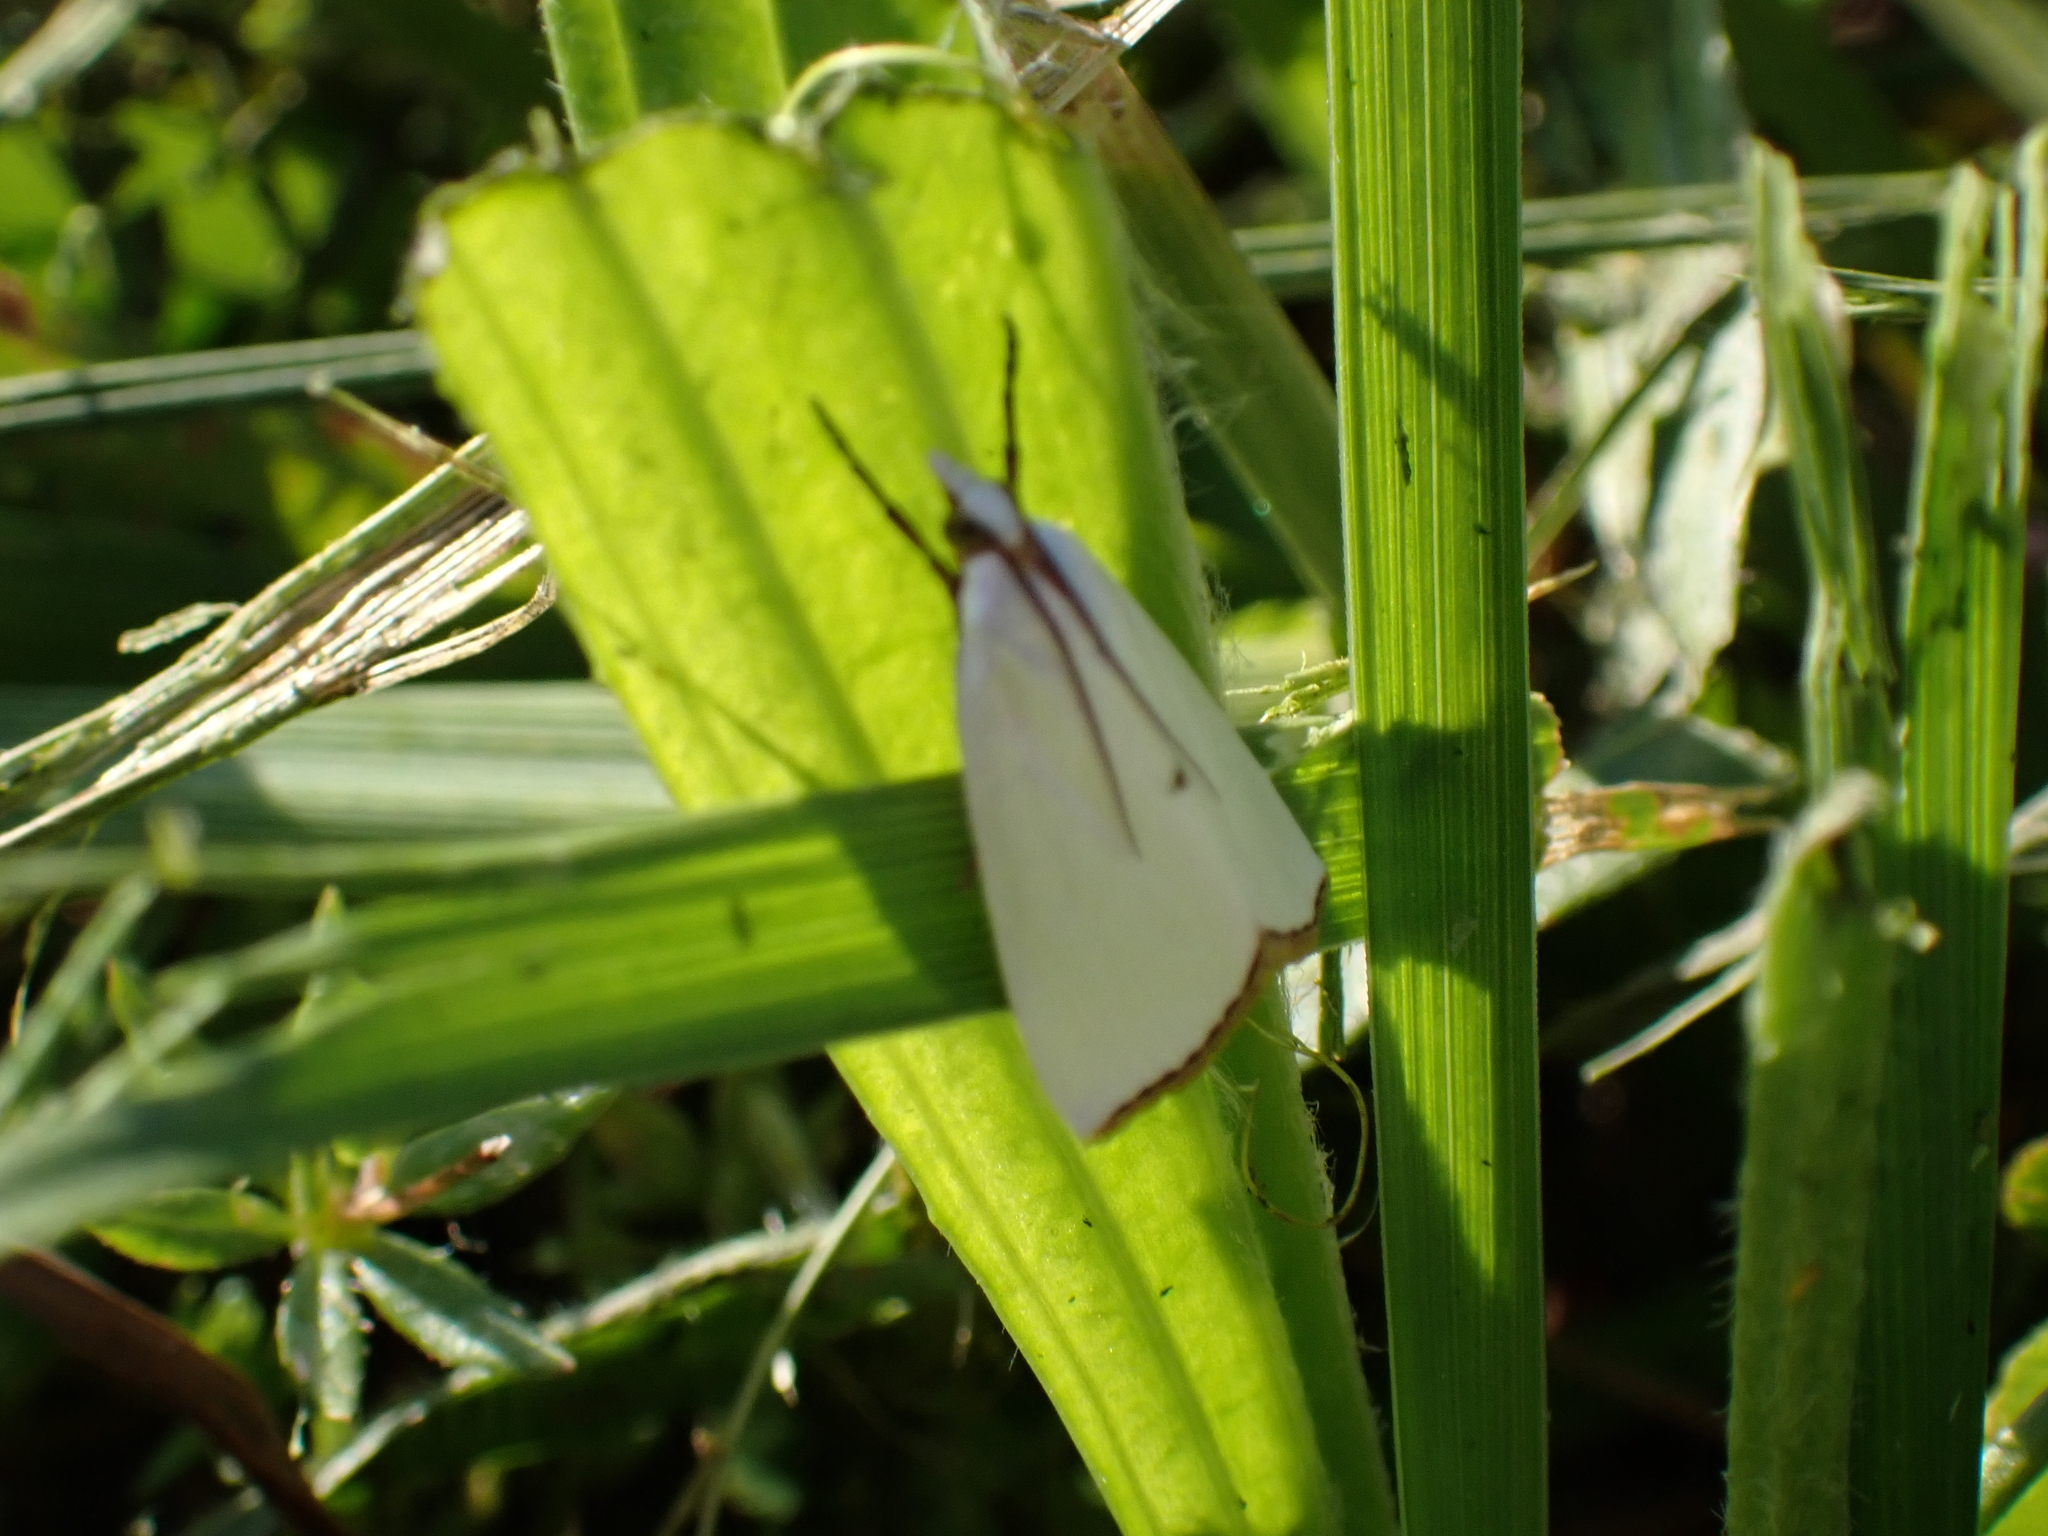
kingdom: Animalia
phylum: Arthropoda
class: Insecta
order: Lepidoptera
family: Crambidae
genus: Argyria
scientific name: Argyria nivalis
